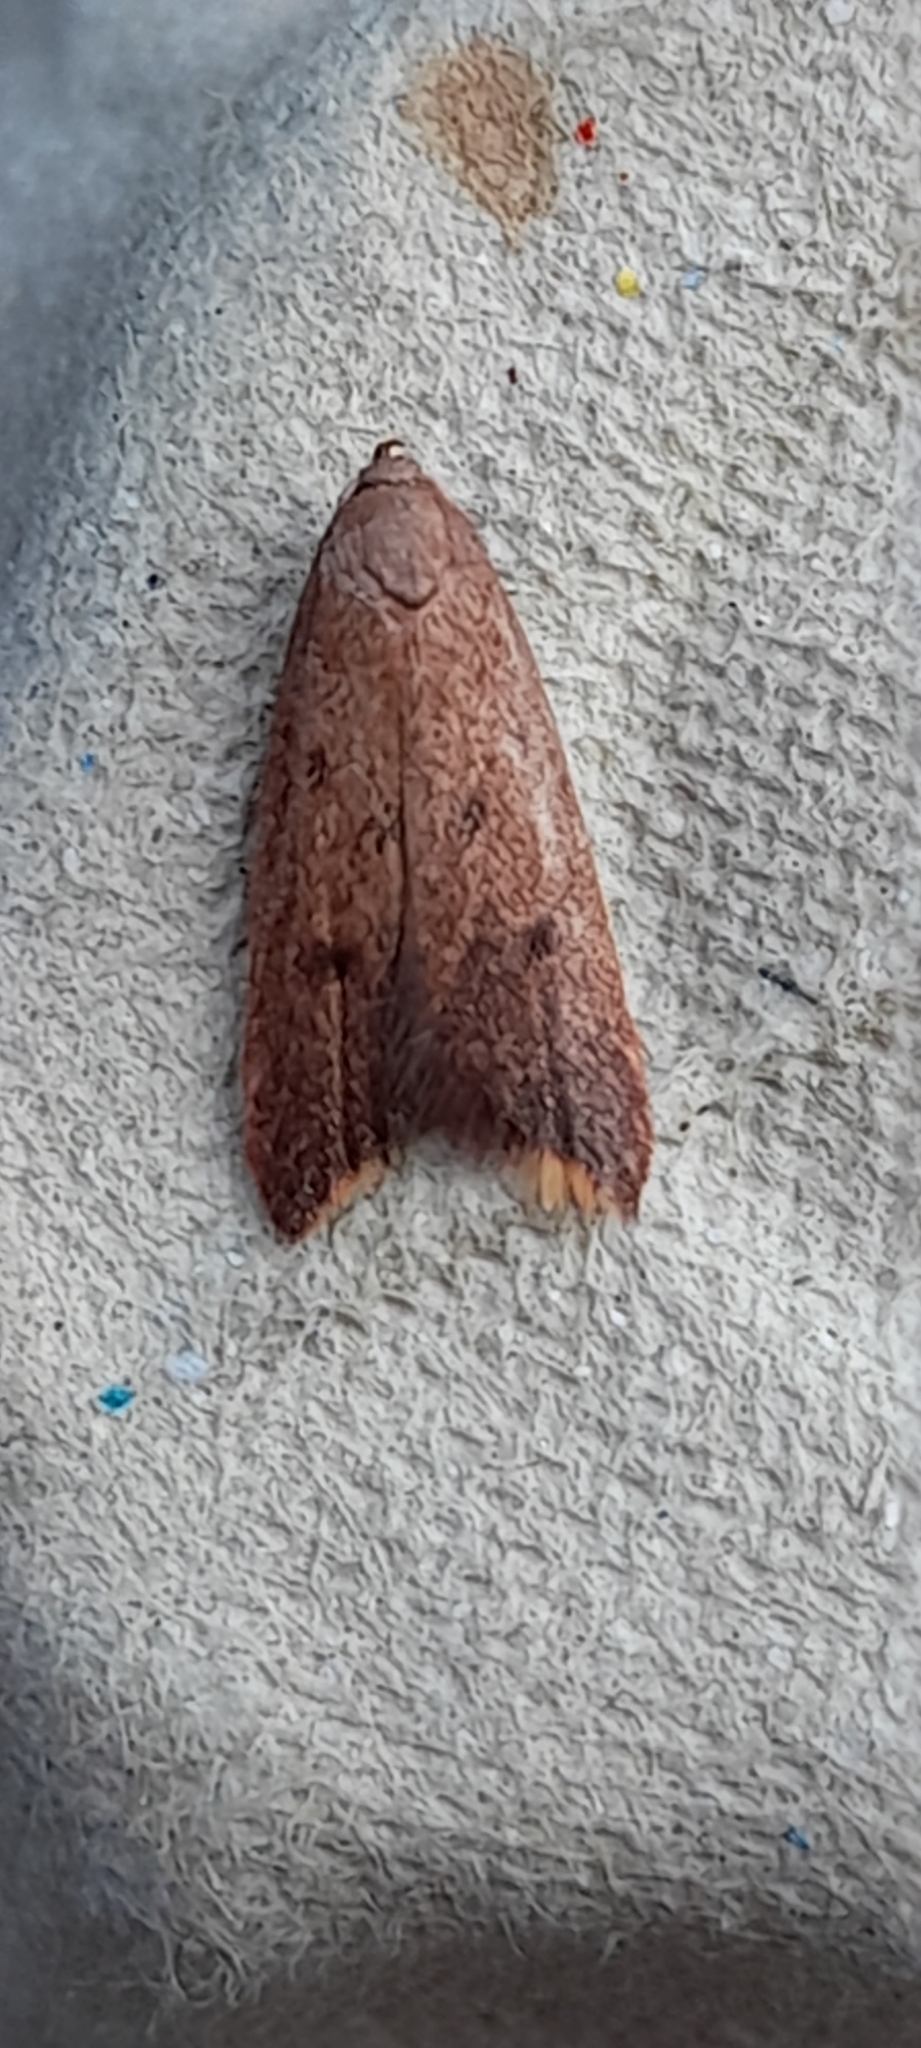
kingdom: Animalia
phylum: Arthropoda
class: Insecta
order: Lepidoptera
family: Oecophoridae
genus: Tachystola
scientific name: Tachystola acroxantha
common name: Ruddy streak
